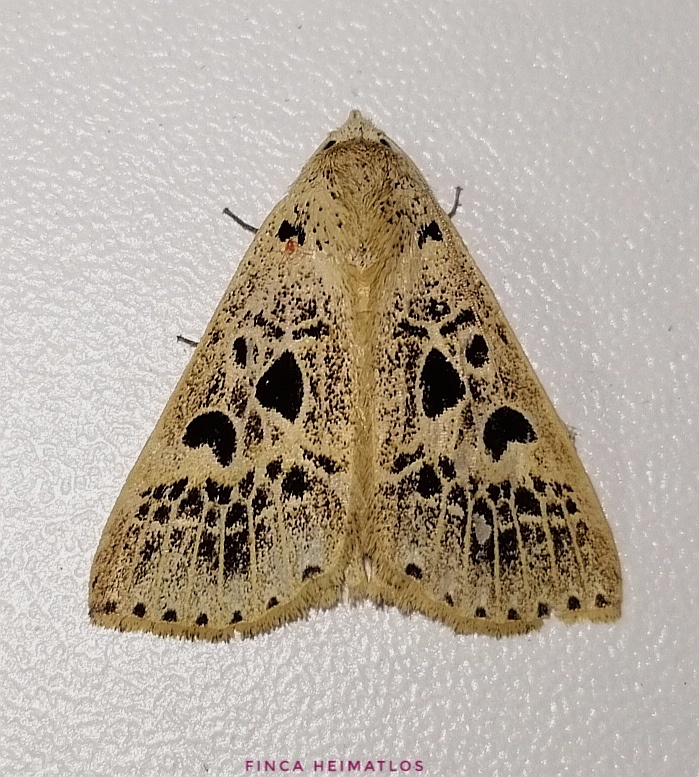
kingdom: Animalia
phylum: Arthropoda
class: Insecta
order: Lepidoptera
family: Erebidae
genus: Scolecocampa
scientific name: Scolecocampa Herminodes atrosignata
